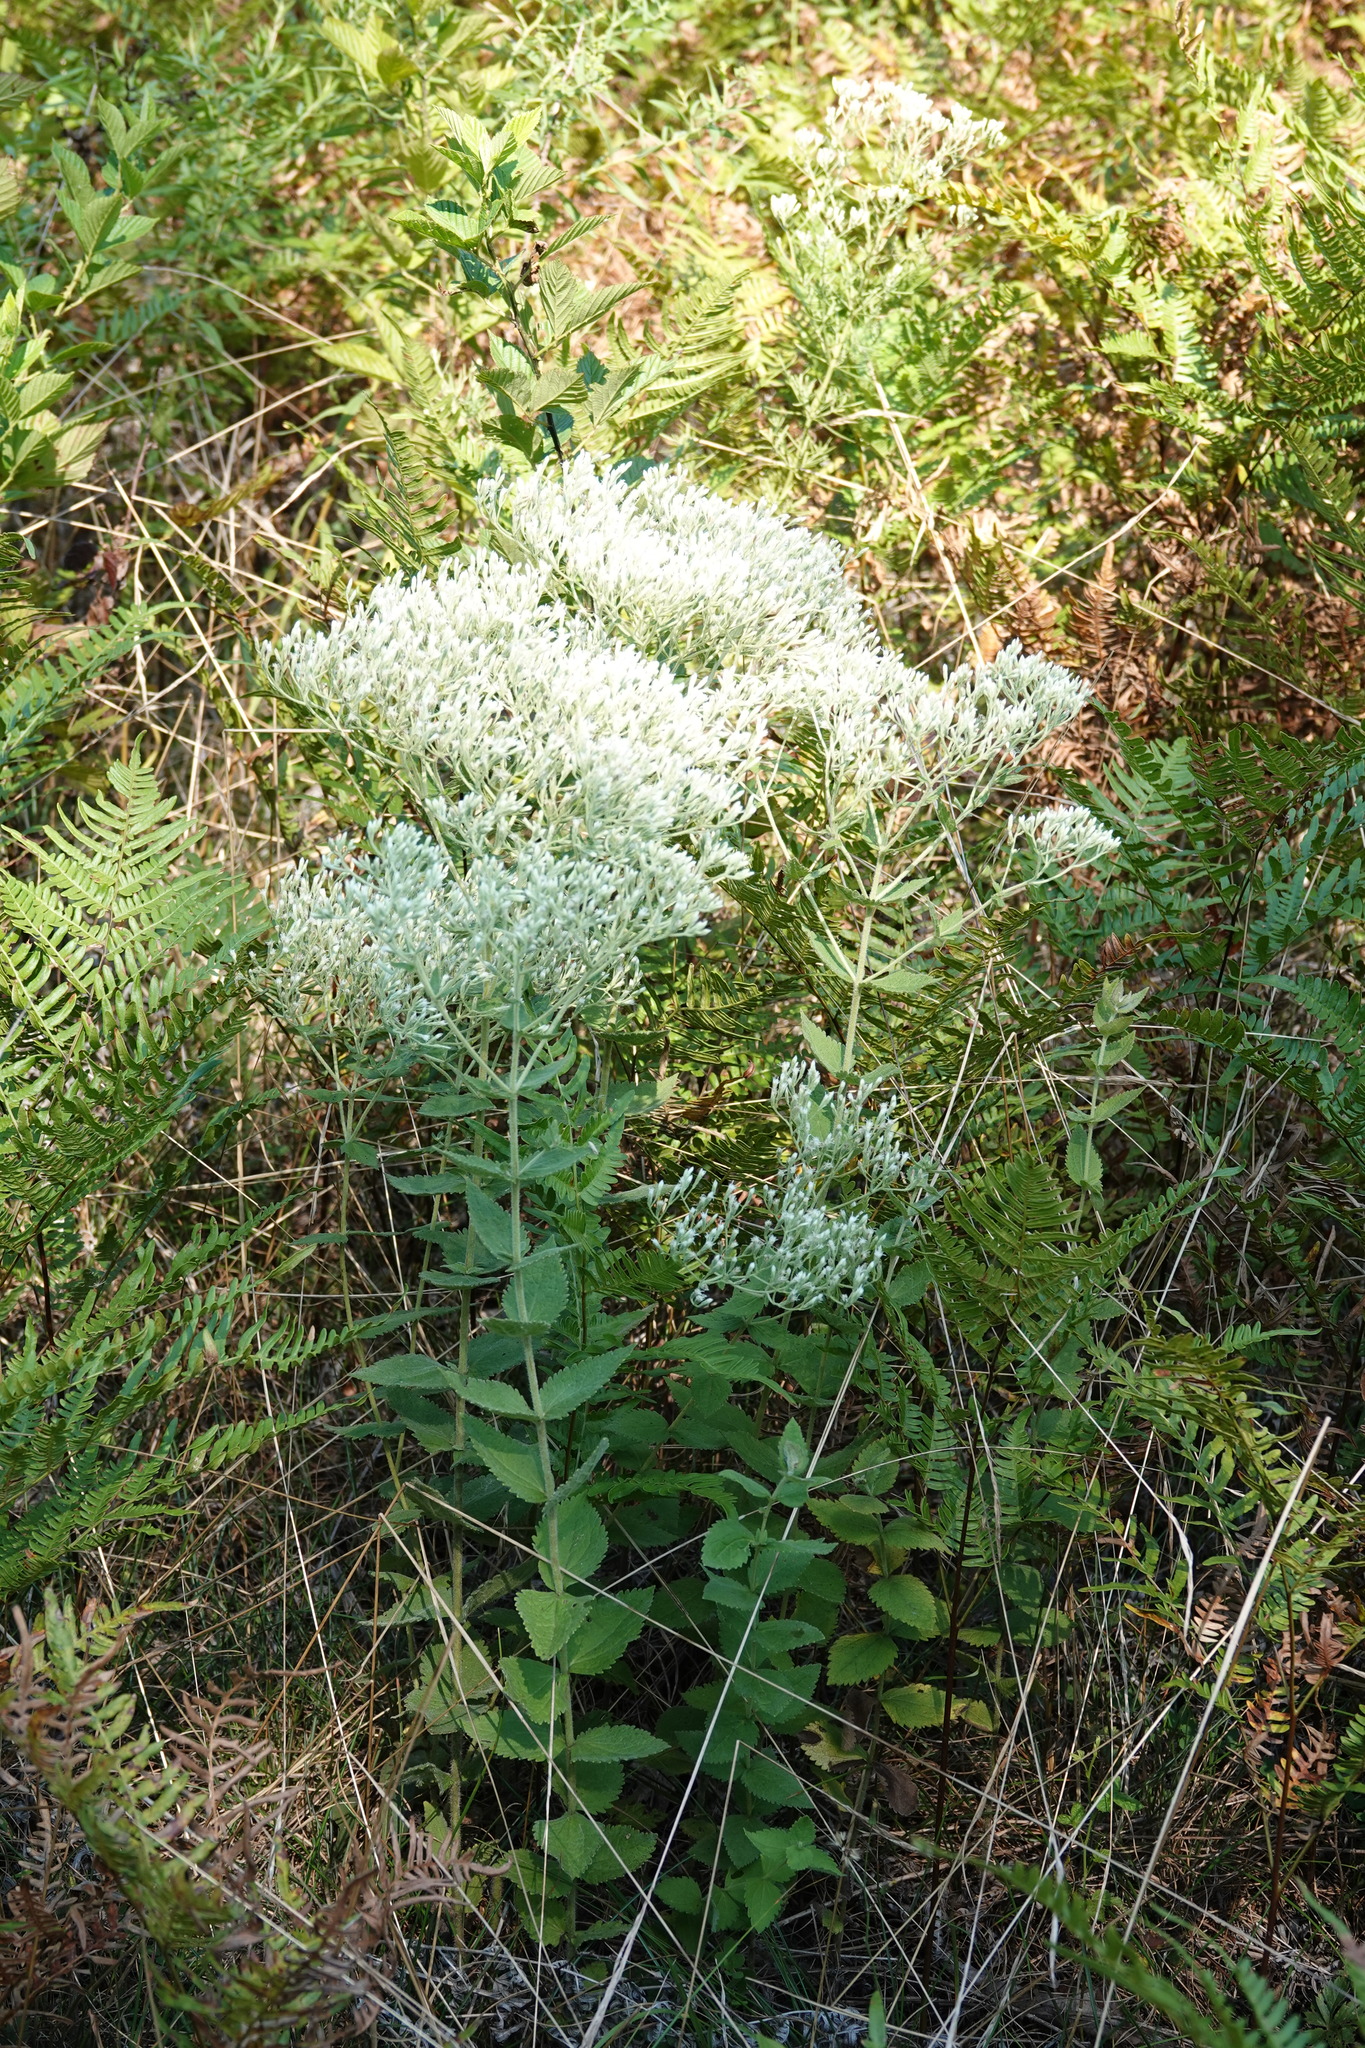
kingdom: Plantae
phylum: Tracheophyta
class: Magnoliopsida
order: Asterales
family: Asteraceae
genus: Eupatorium
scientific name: Eupatorium rotundifolium
